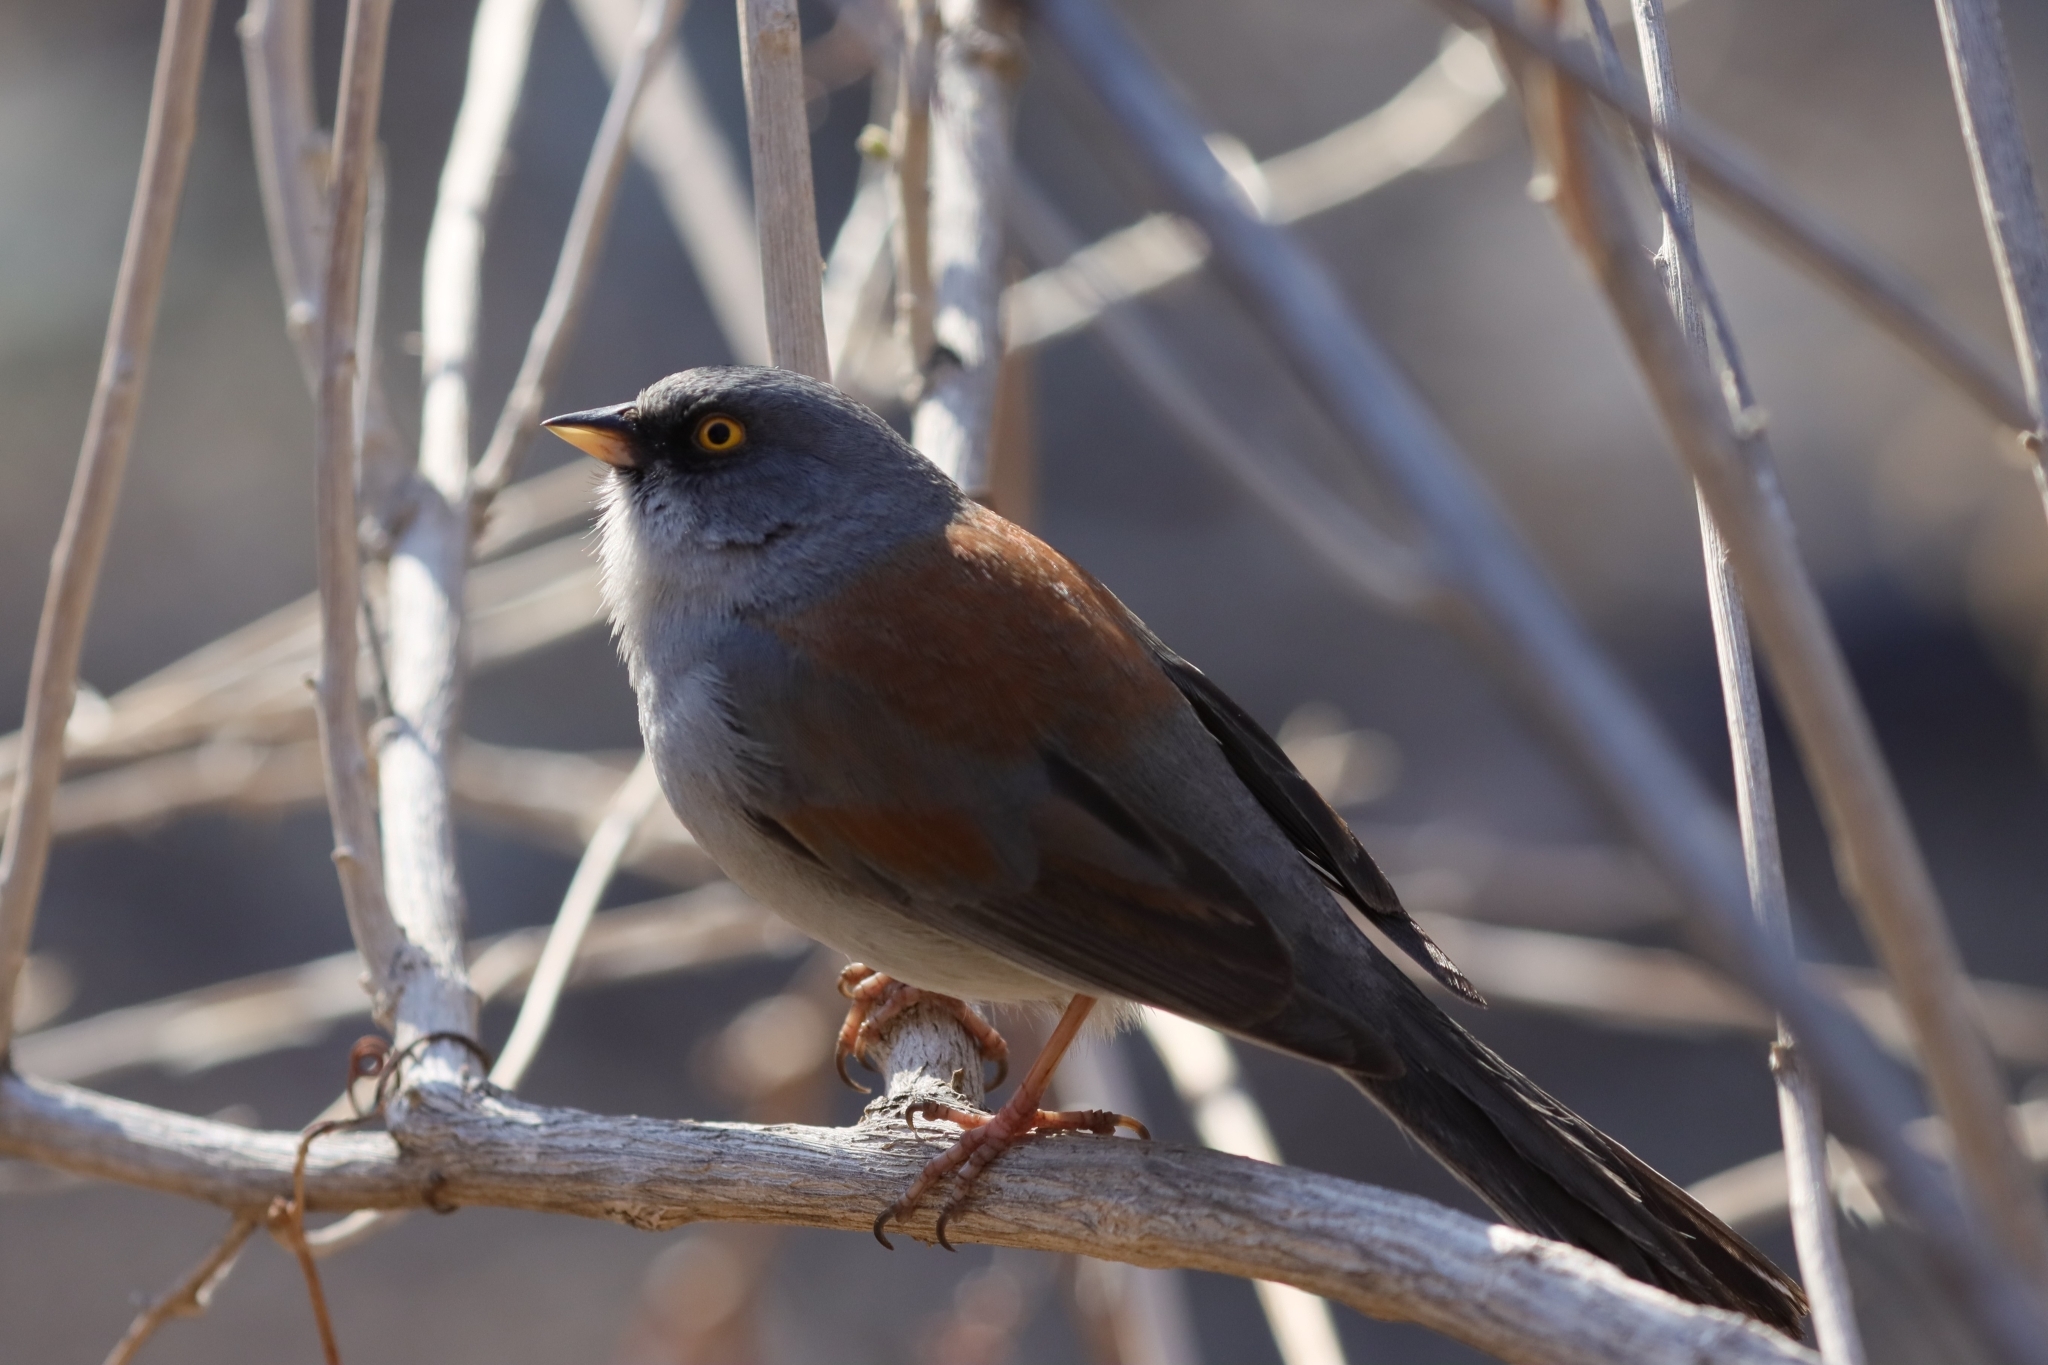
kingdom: Animalia
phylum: Chordata
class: Aves
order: Passeriformes
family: Passerellidae
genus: Junco
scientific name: Junco phaeonotus
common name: Yellow-eyed junco
